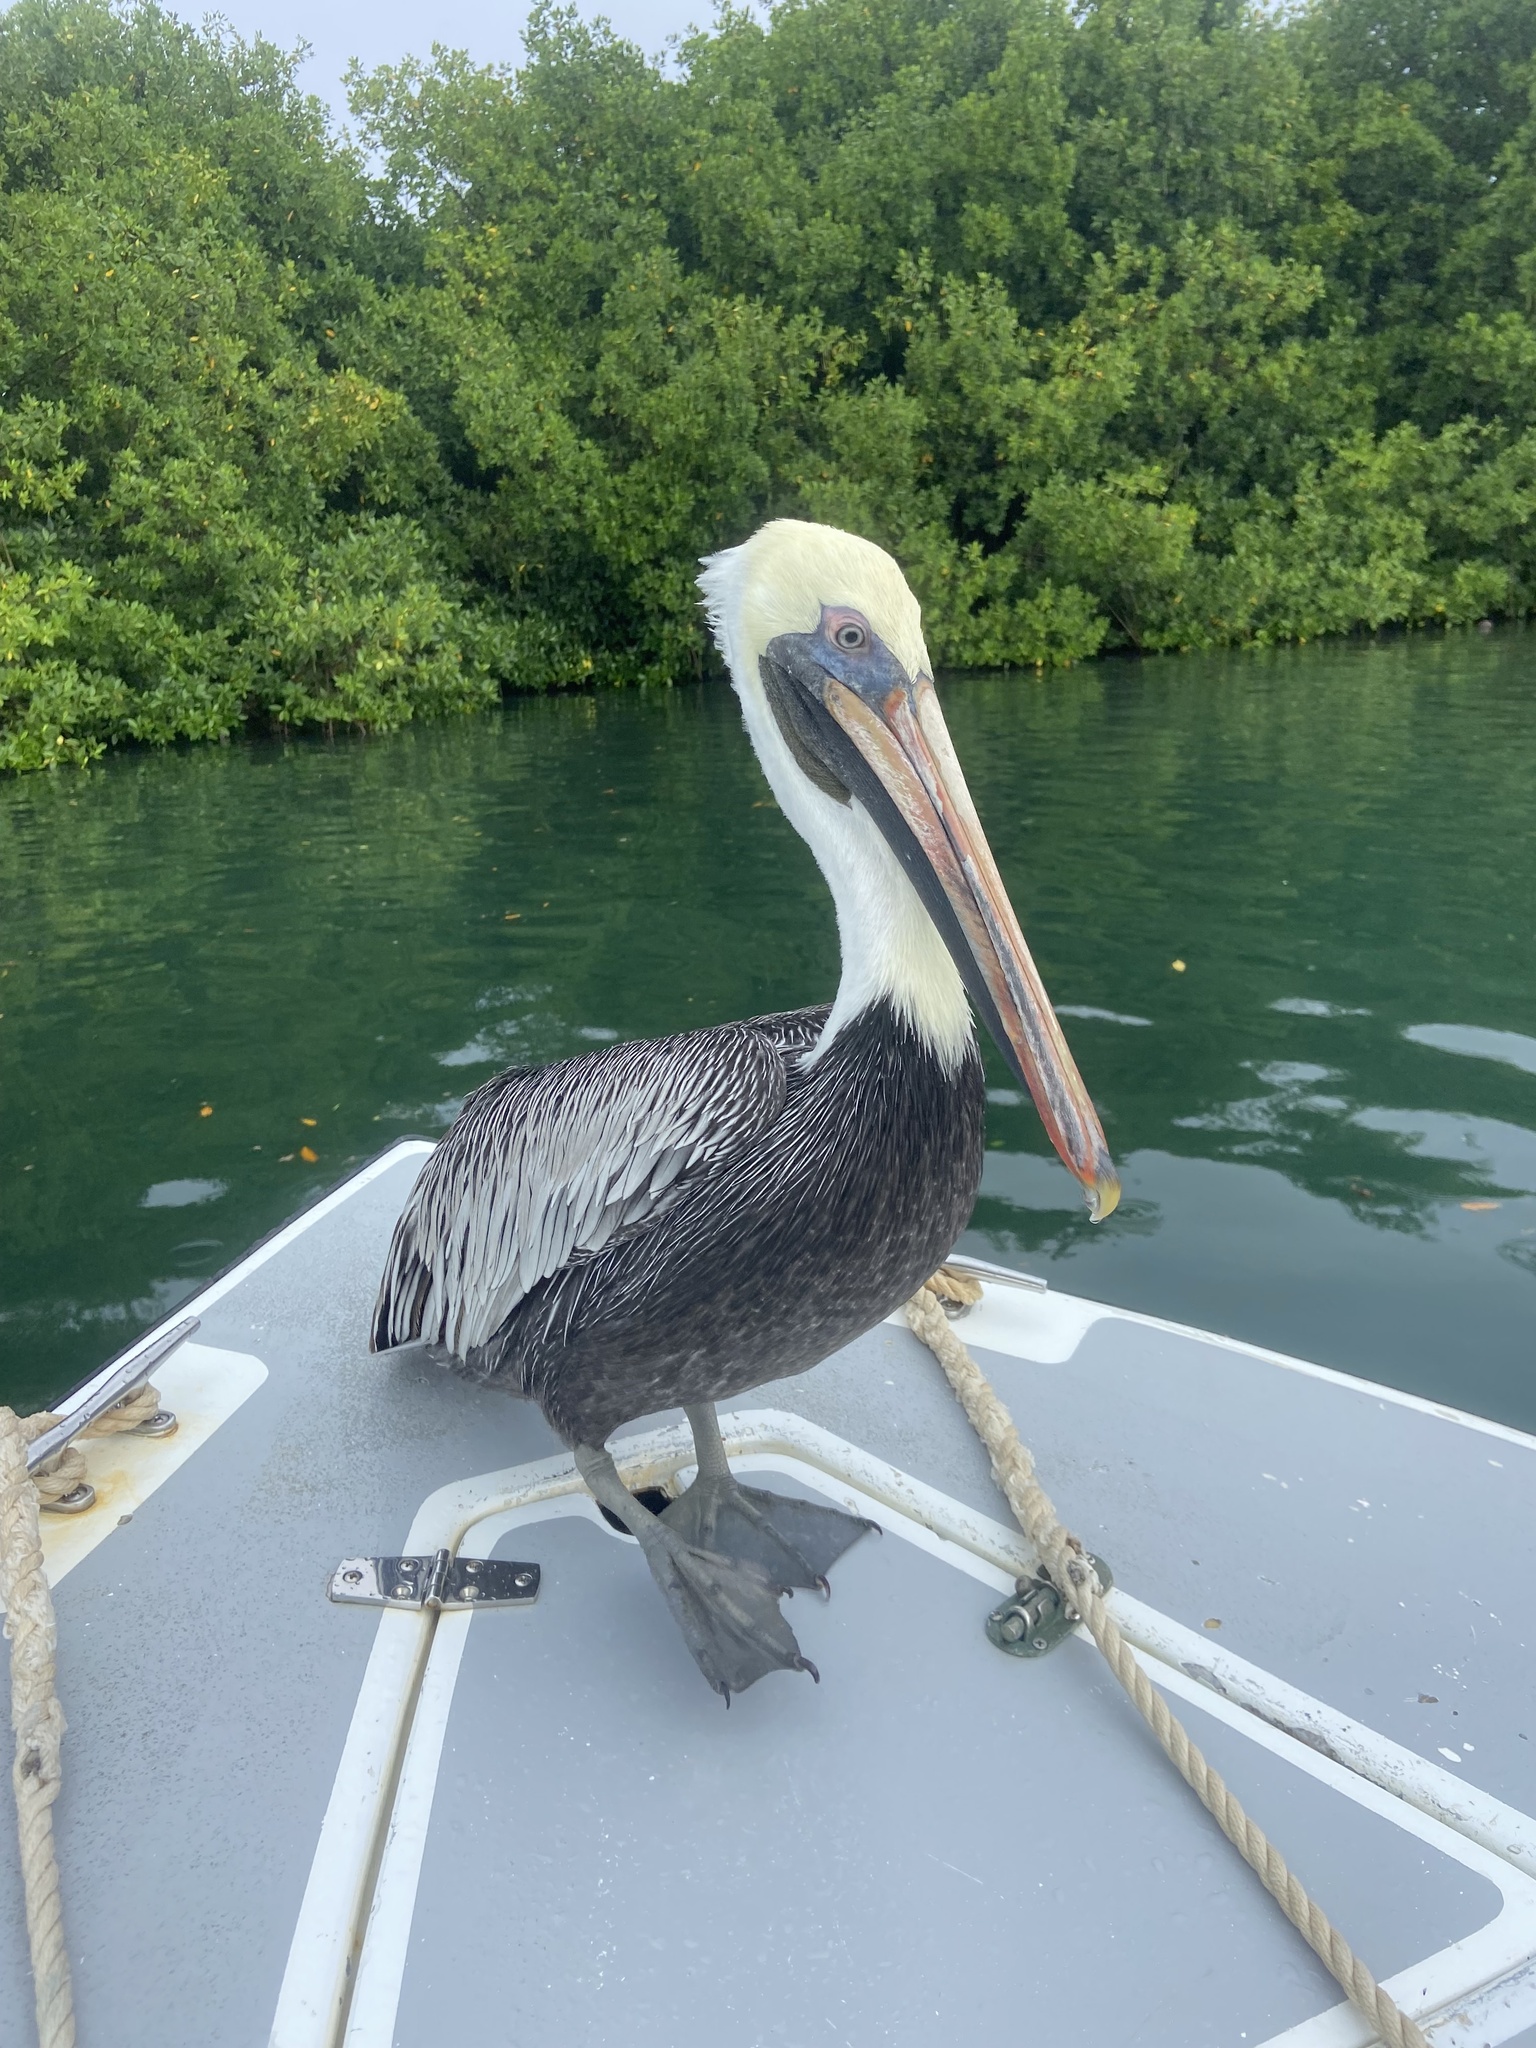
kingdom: Animalia
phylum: Chordata
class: Aves
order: Pelecaniformes
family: Pelecanidae
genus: Pelecanus
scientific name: Pelecanus occidentalis
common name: Brown pelican
